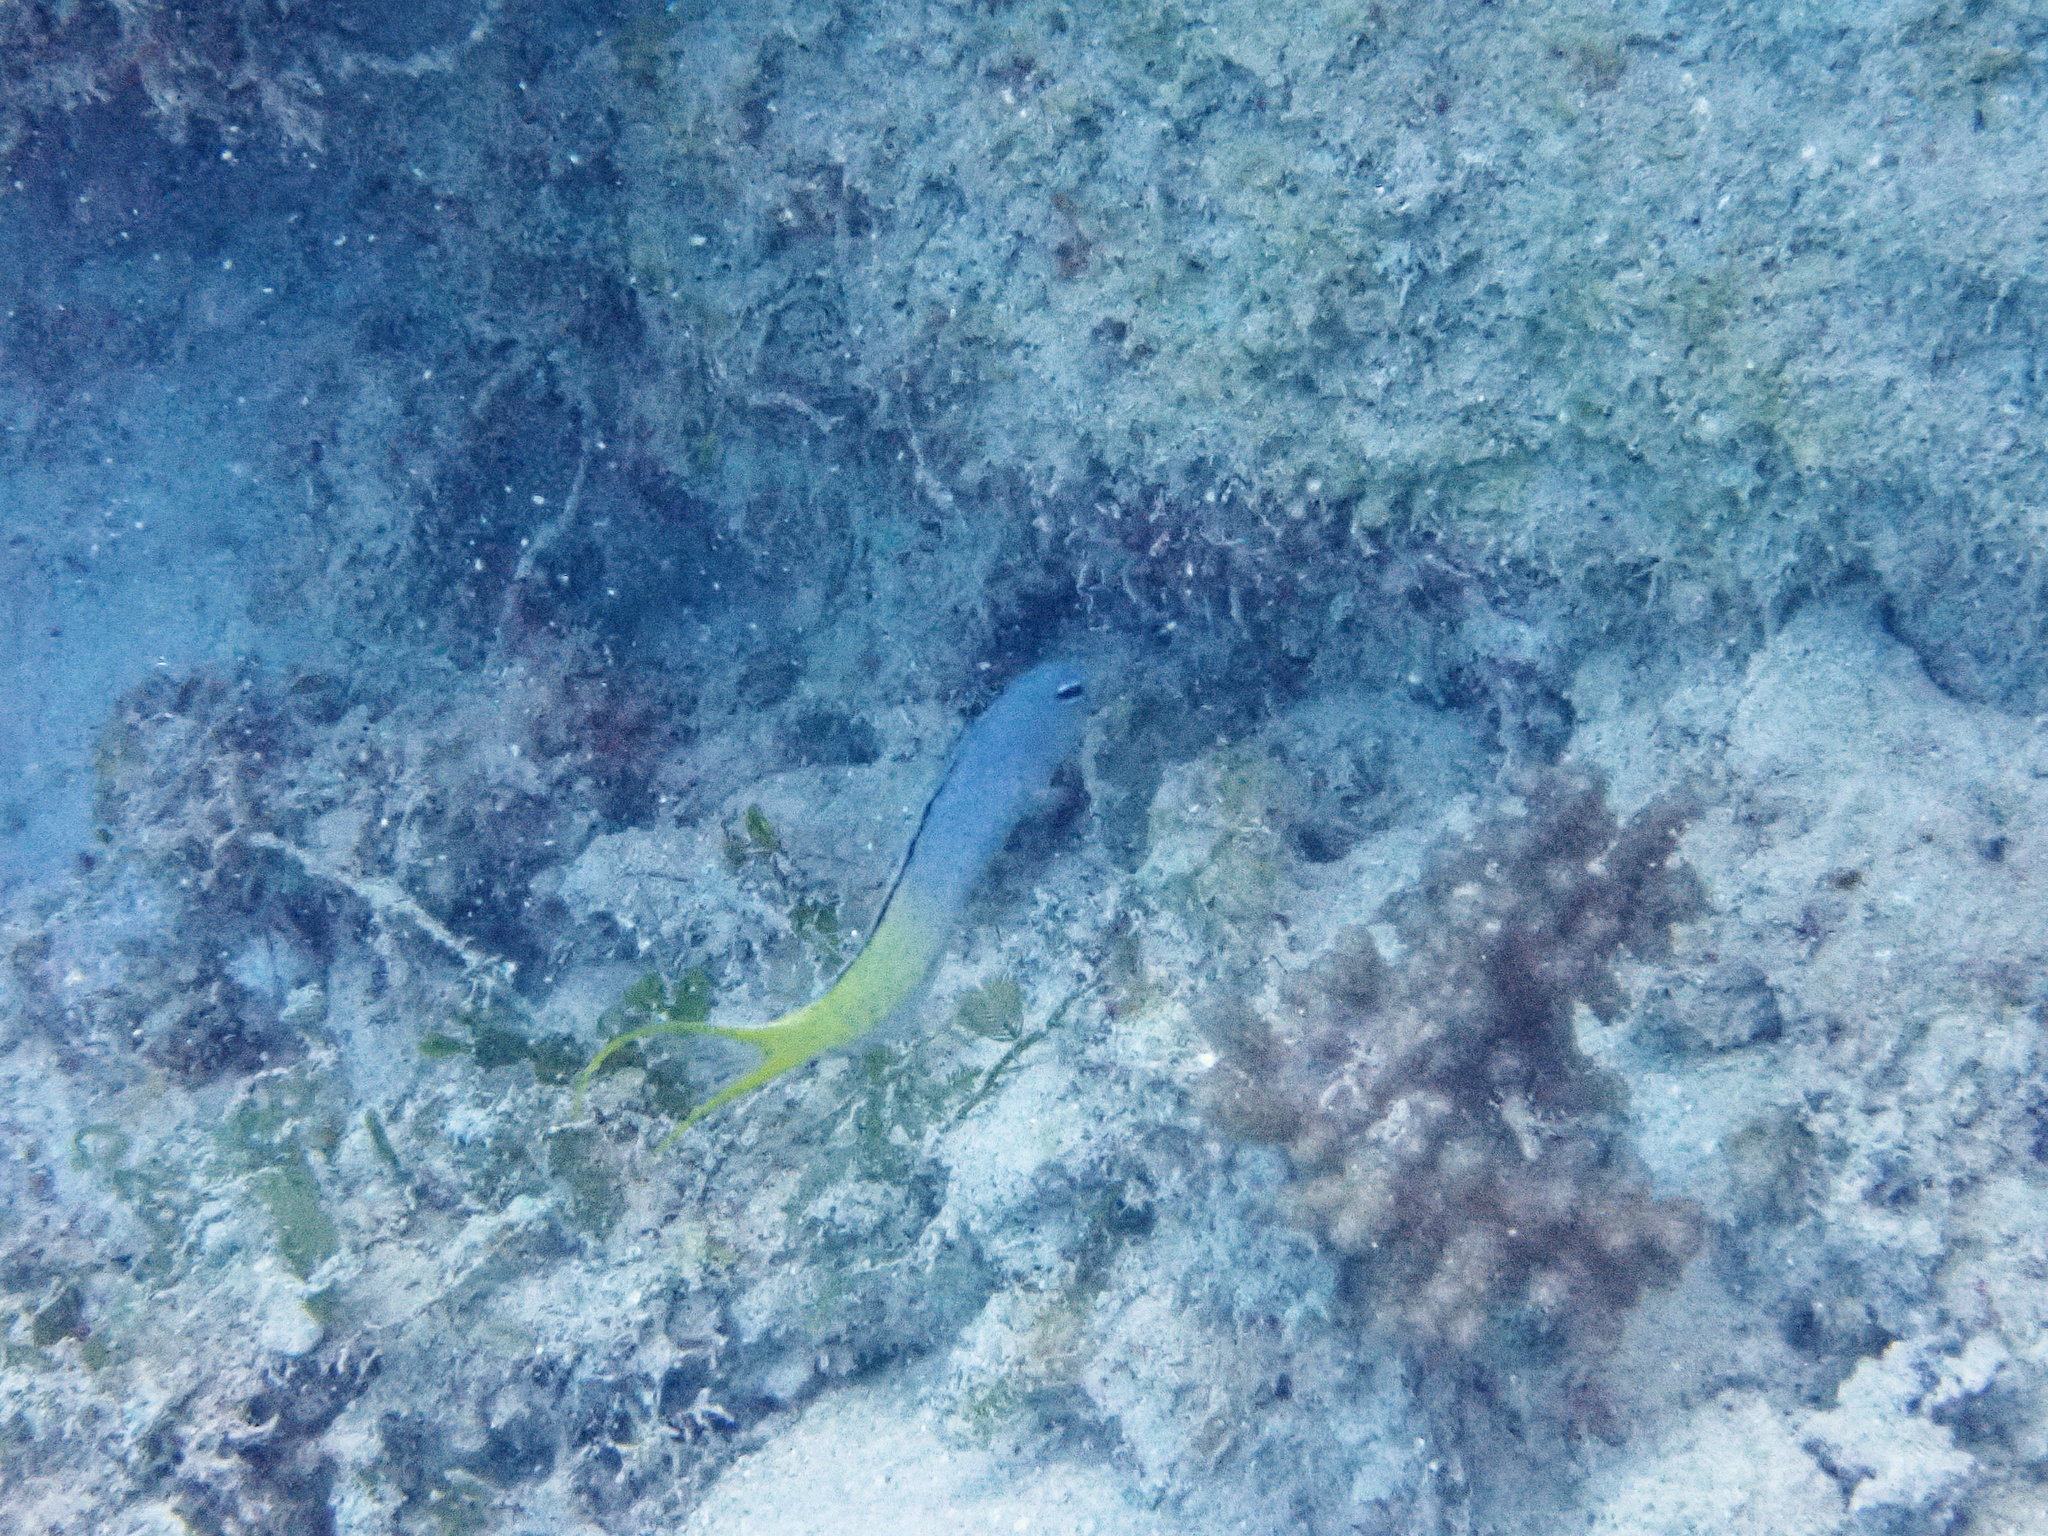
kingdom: Animalia
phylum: Chordata
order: Perciformes
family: Blenniidae
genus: Meiacanthus
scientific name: Meiacanthus atrodorsalis
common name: Eye-lash harptail-blenny
